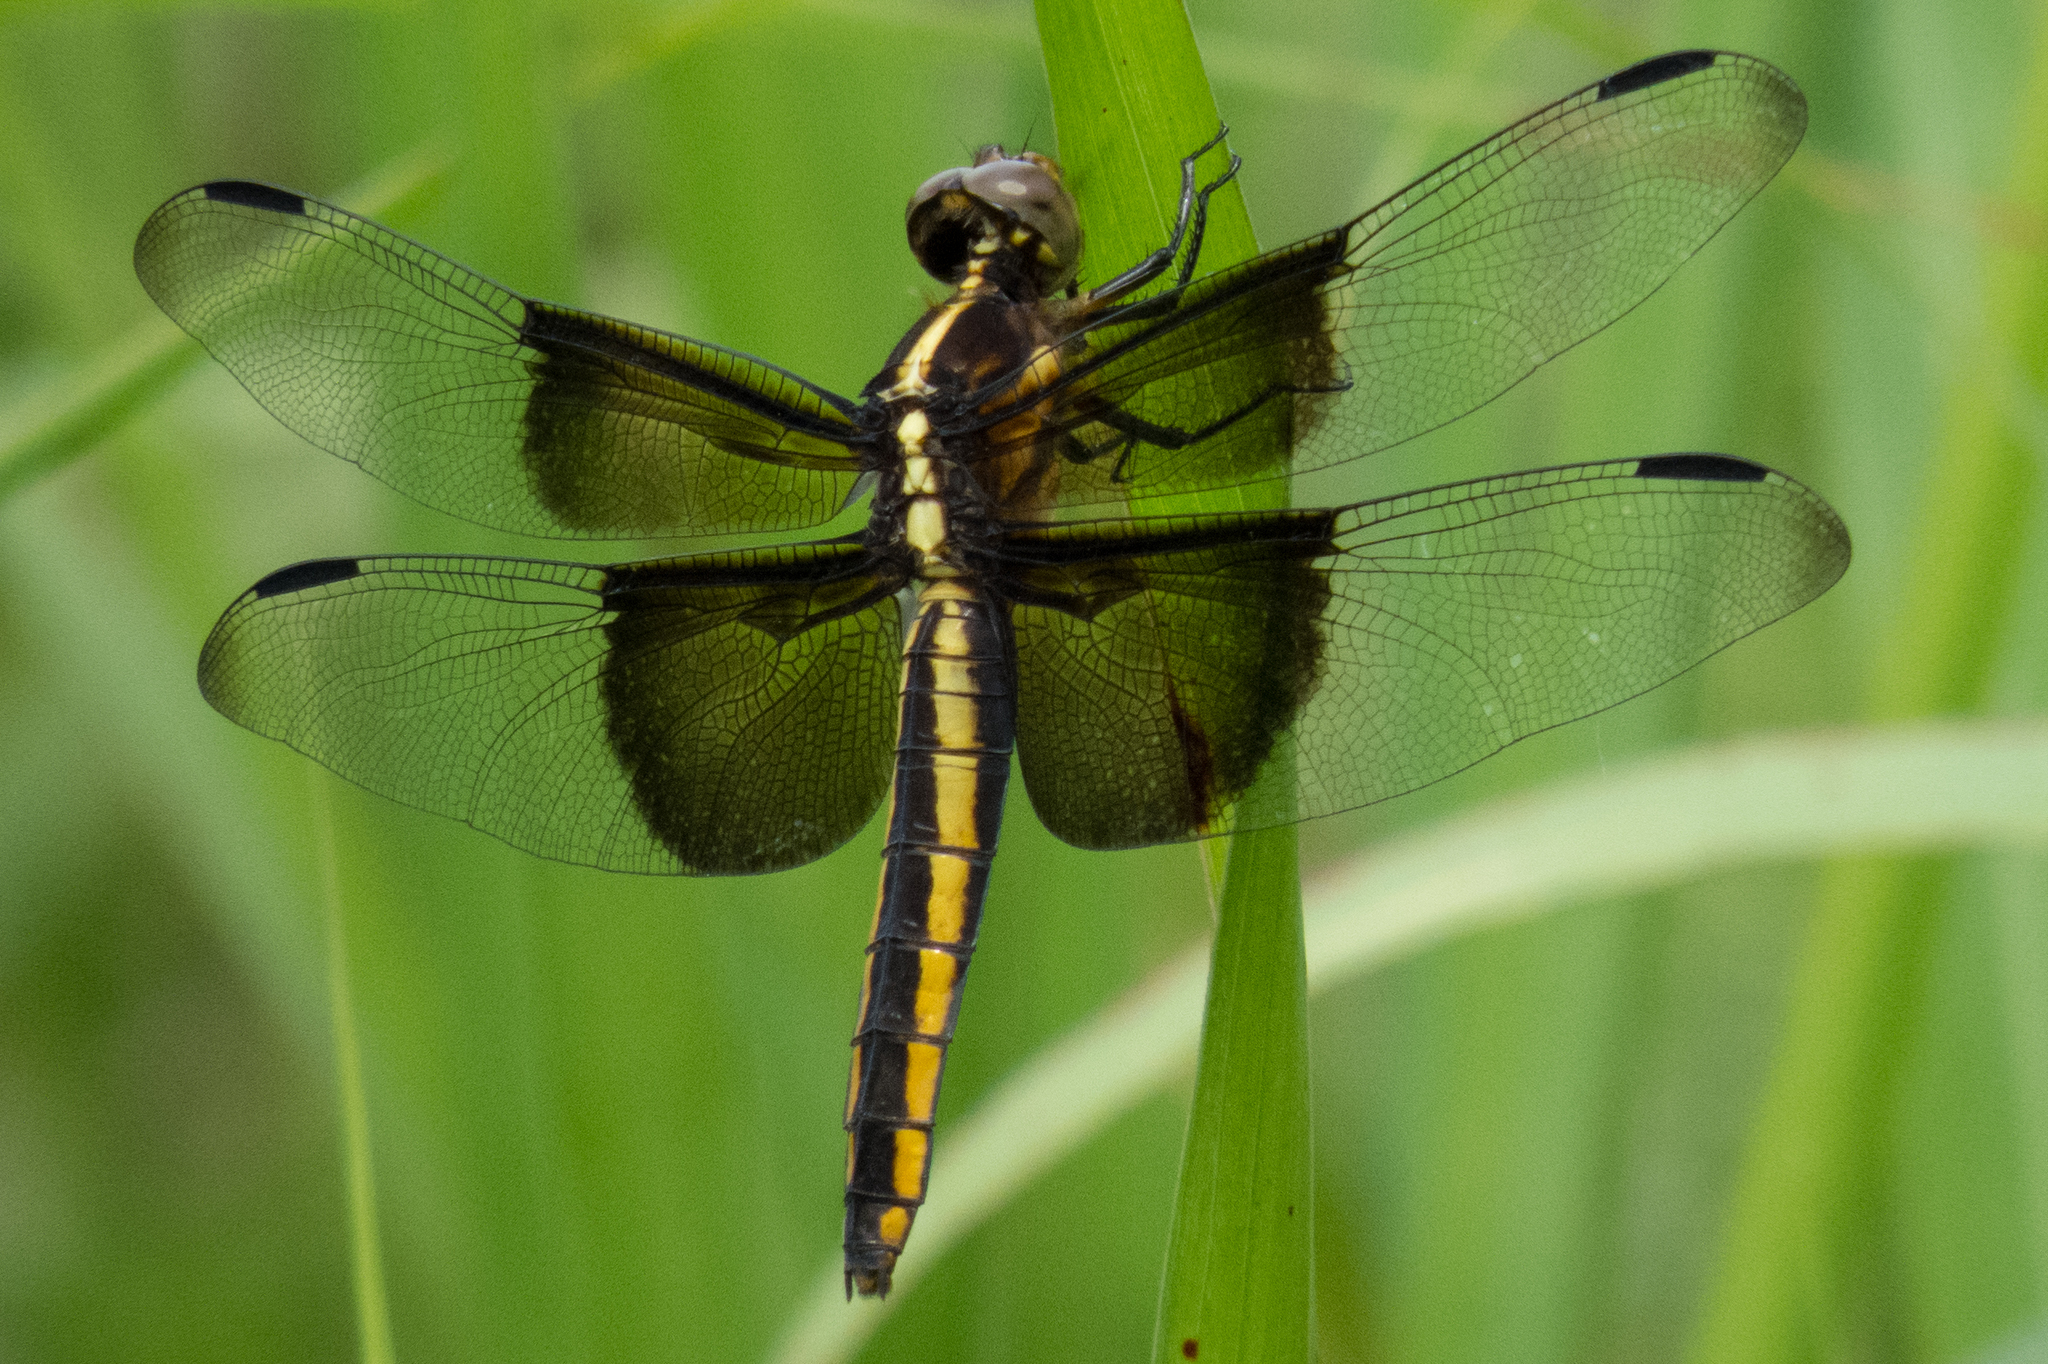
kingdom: Animalia
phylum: Arthropoda
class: Insecta
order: Odonata
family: Libellulidae
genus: Libellula
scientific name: Libellula luctuosa
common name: Widow skimmer
